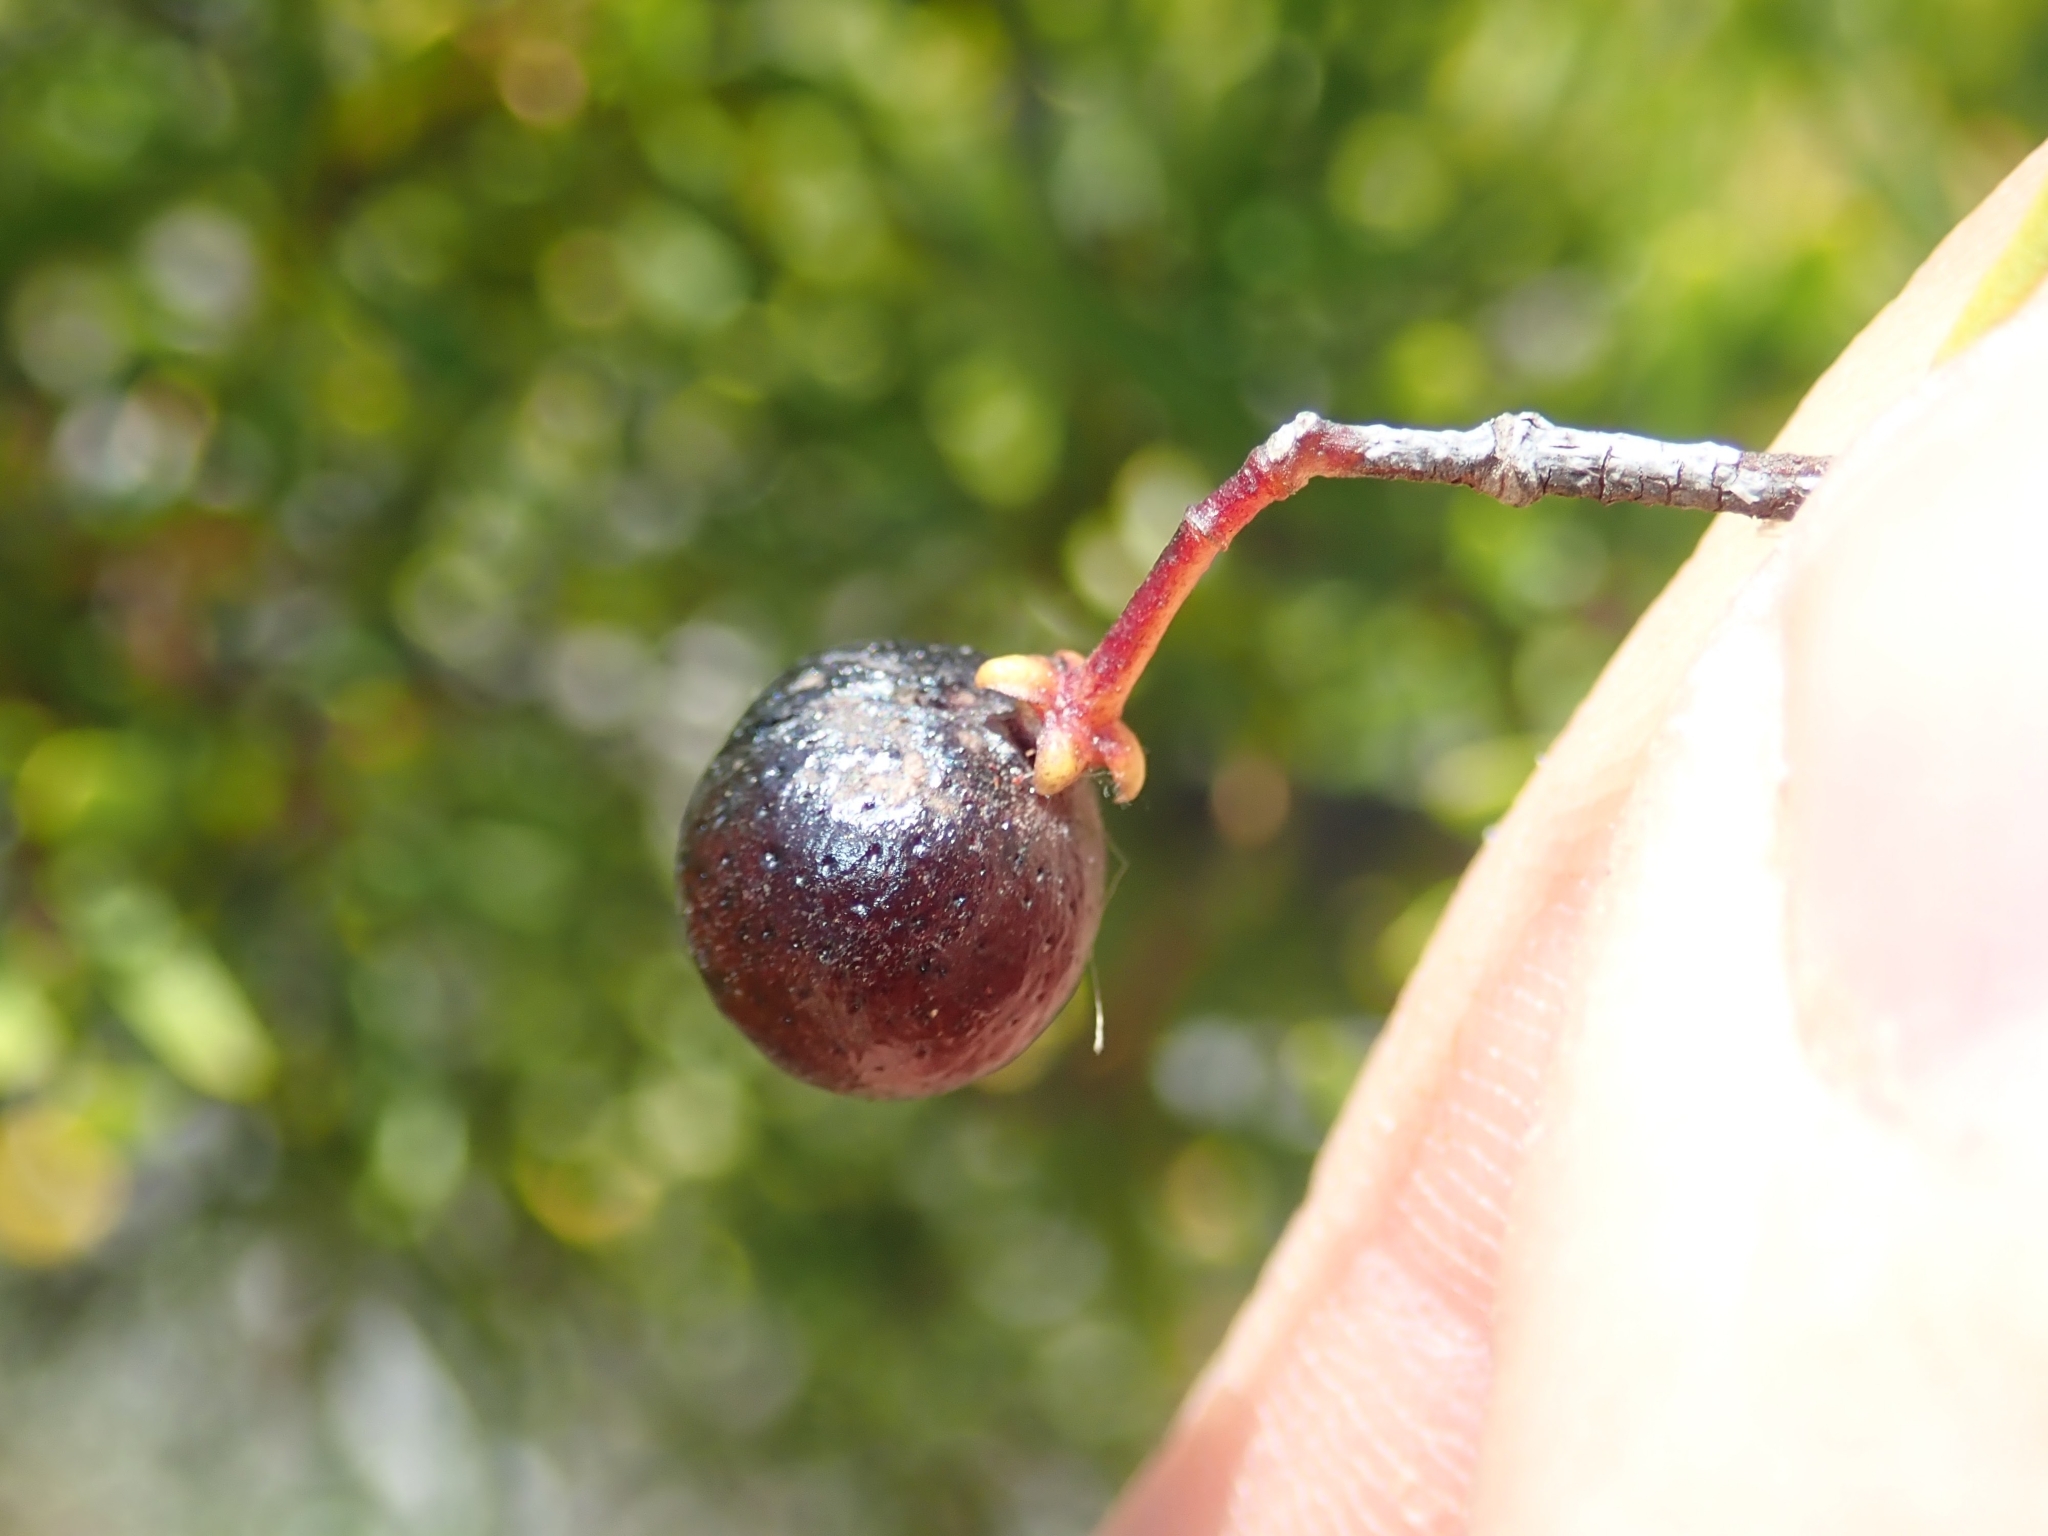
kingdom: Plantae
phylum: Tracheophyta
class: Magnoliopsida
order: Sapindales
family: Rutaceae
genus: Cneoridium
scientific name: Cneoridium dumosum
